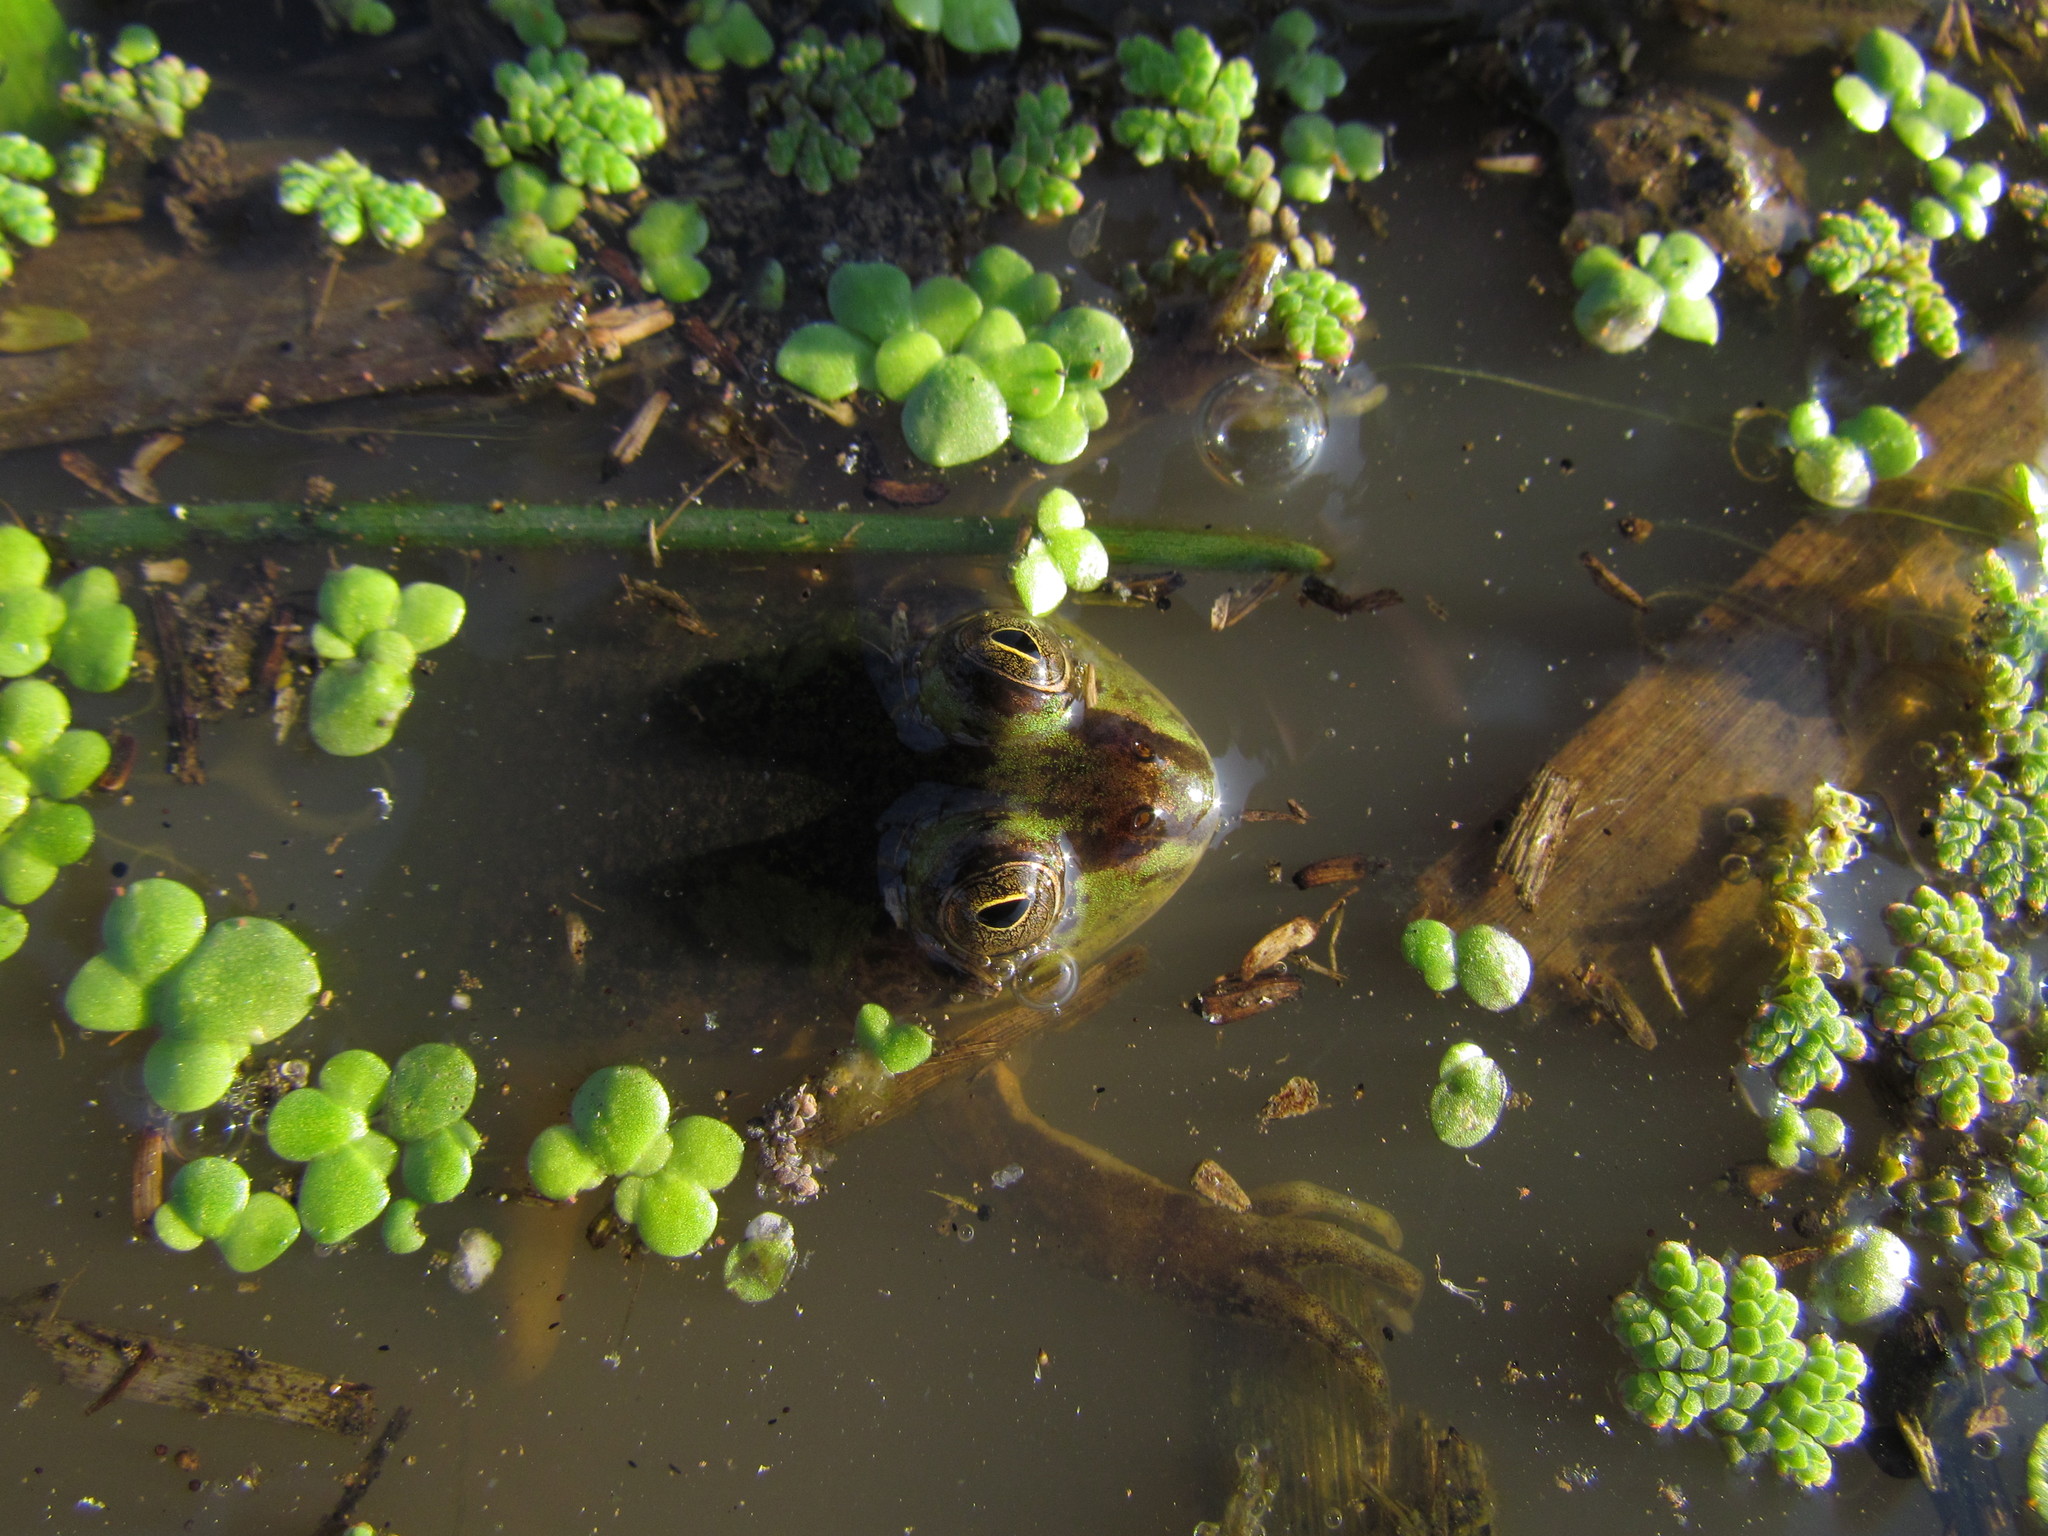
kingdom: Animalia
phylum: Chordata
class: Amphibia
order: Anura
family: Hylidae
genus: Pseudis
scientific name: Pseudis minuta
